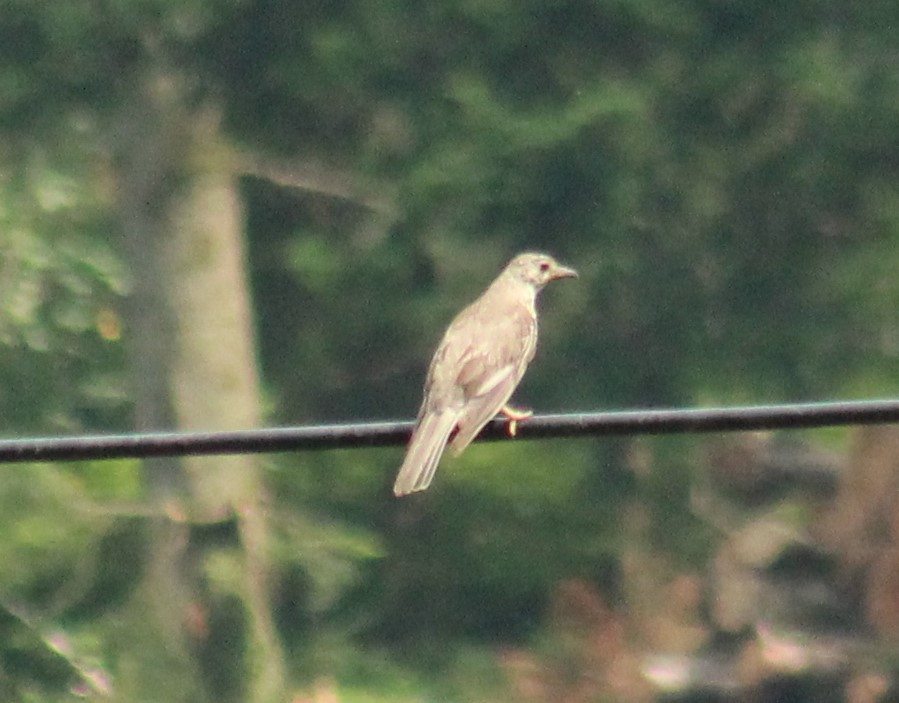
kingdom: Animalia
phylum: Chordata
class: Aves
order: Passeriformes
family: Turdidae
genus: Turdus
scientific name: Turdus viscivorus
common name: Mistle thrush
